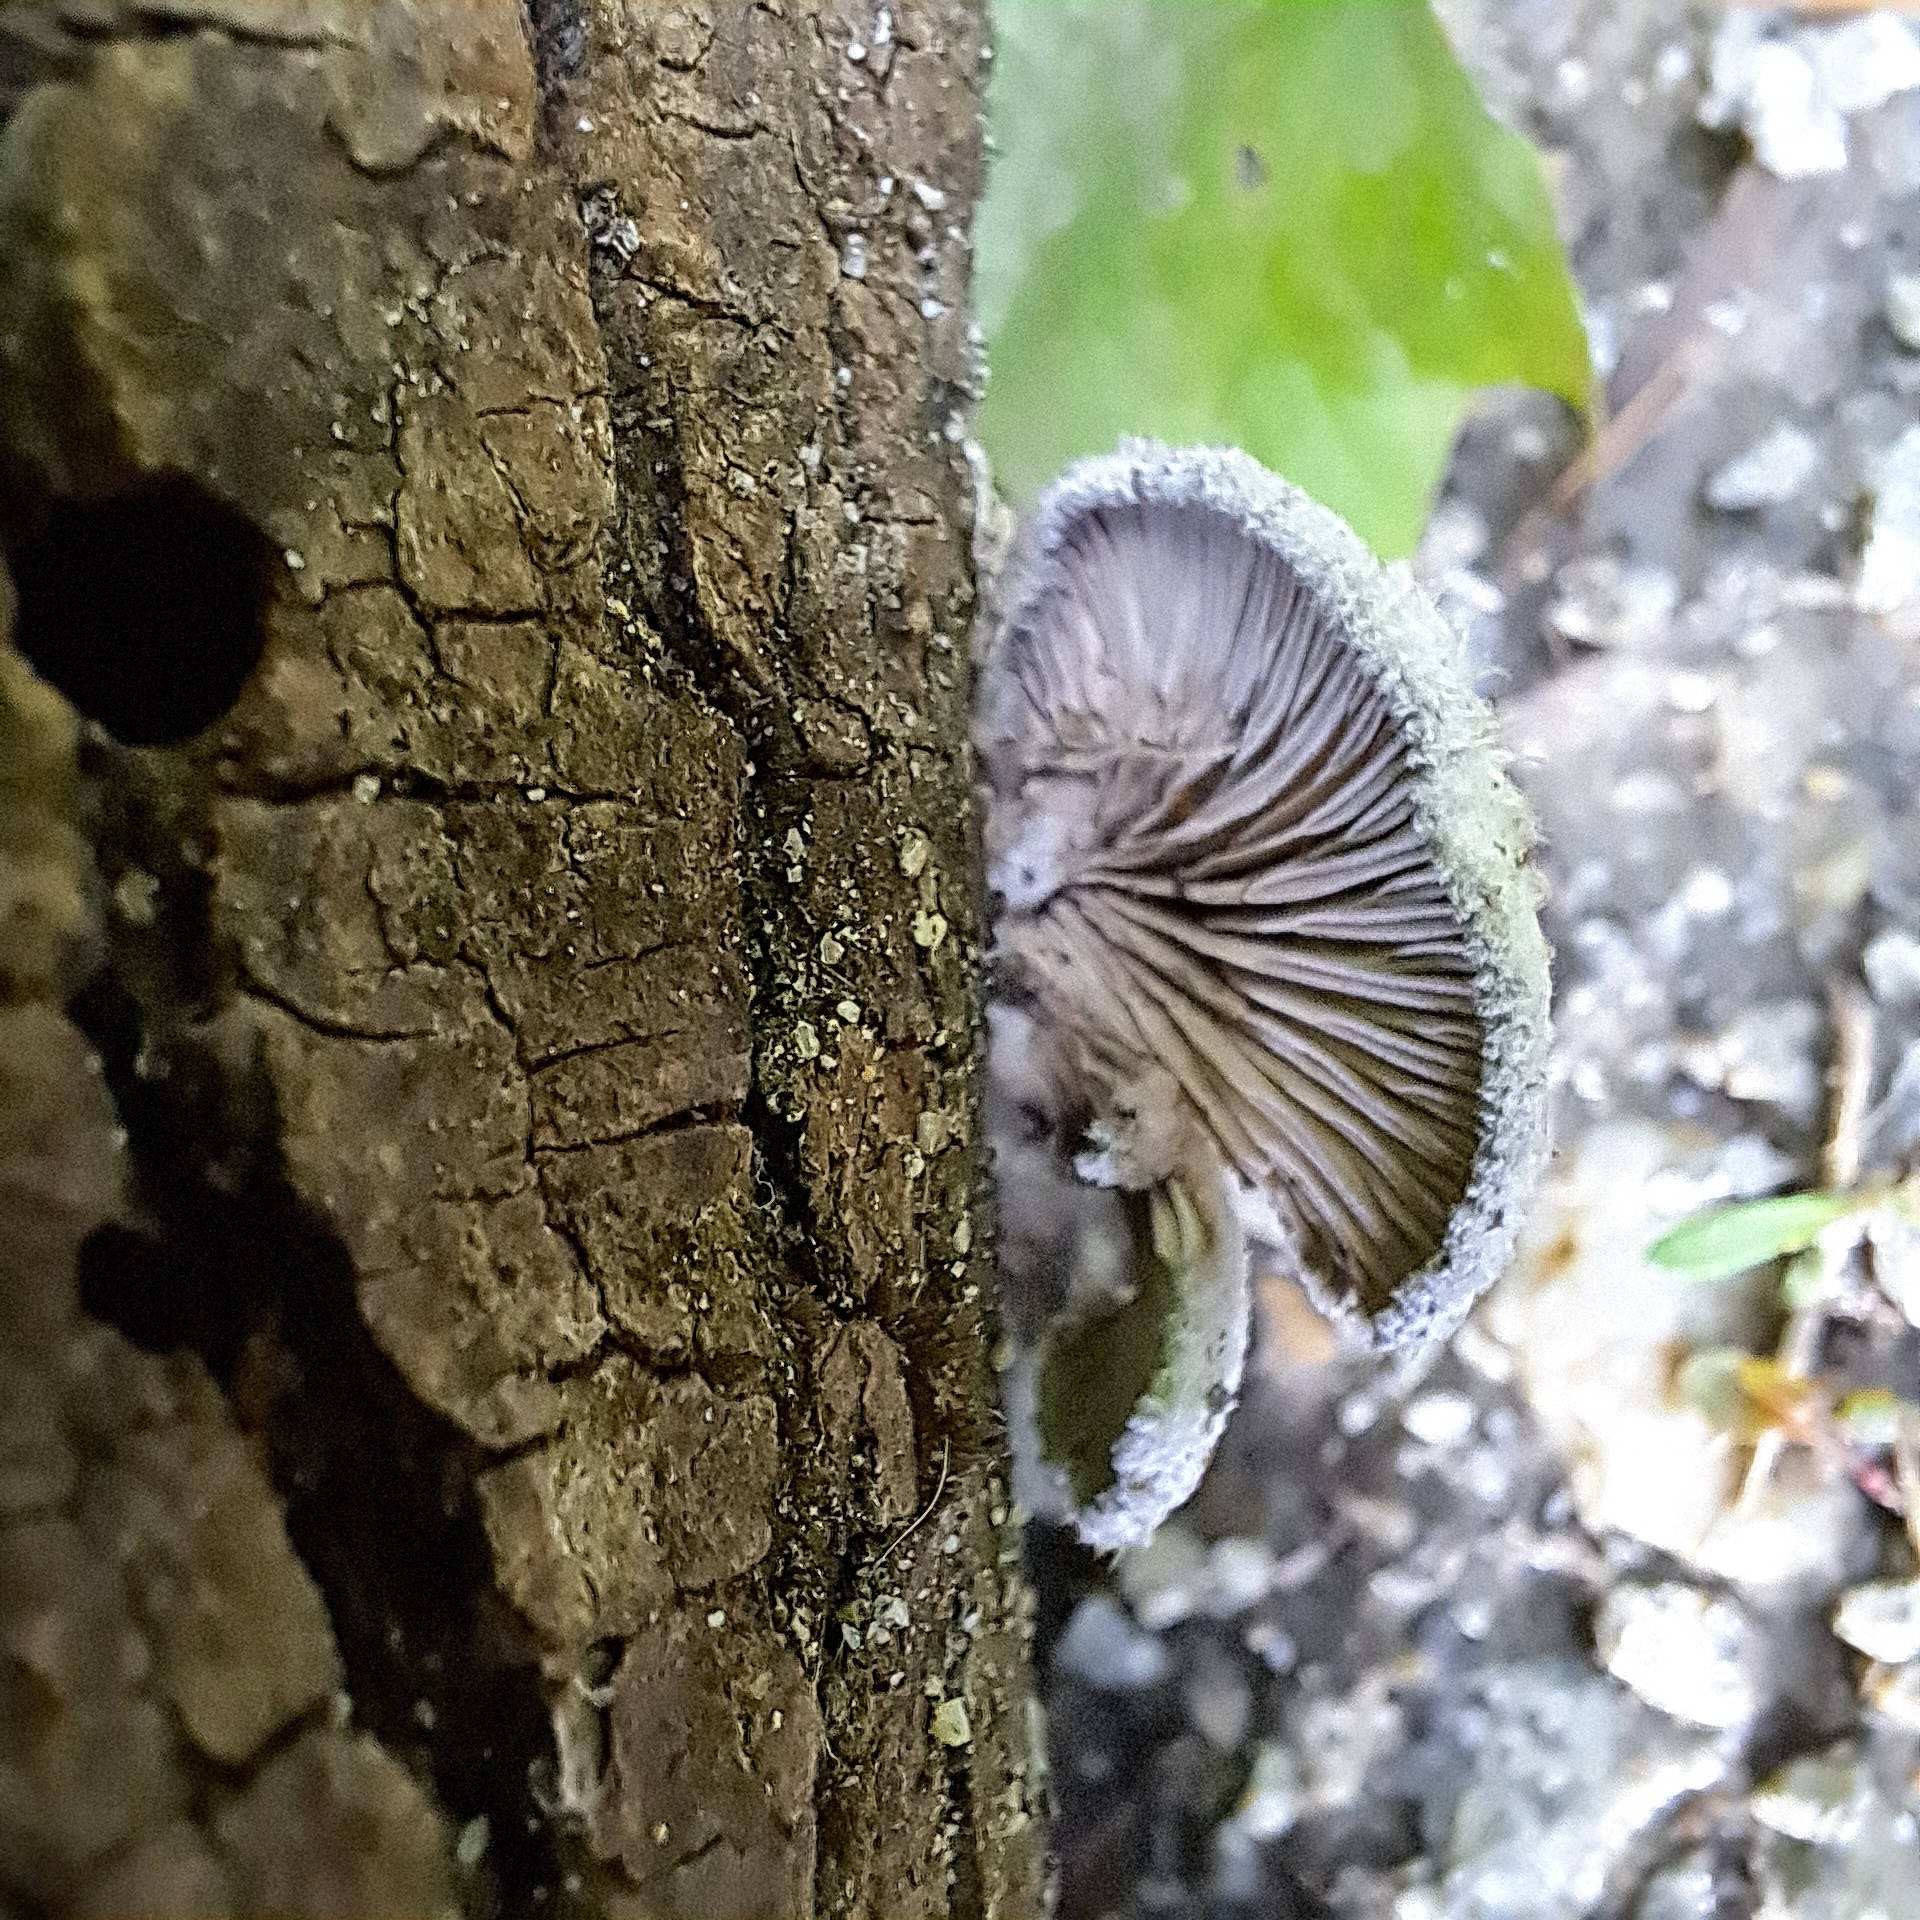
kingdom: Fungi
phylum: Basidiomycota
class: Agaricomycetes
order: Agaricales
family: Schizophyllaceae
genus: Schizophyllum
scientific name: Schizophyllum commune
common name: Common porecrust
